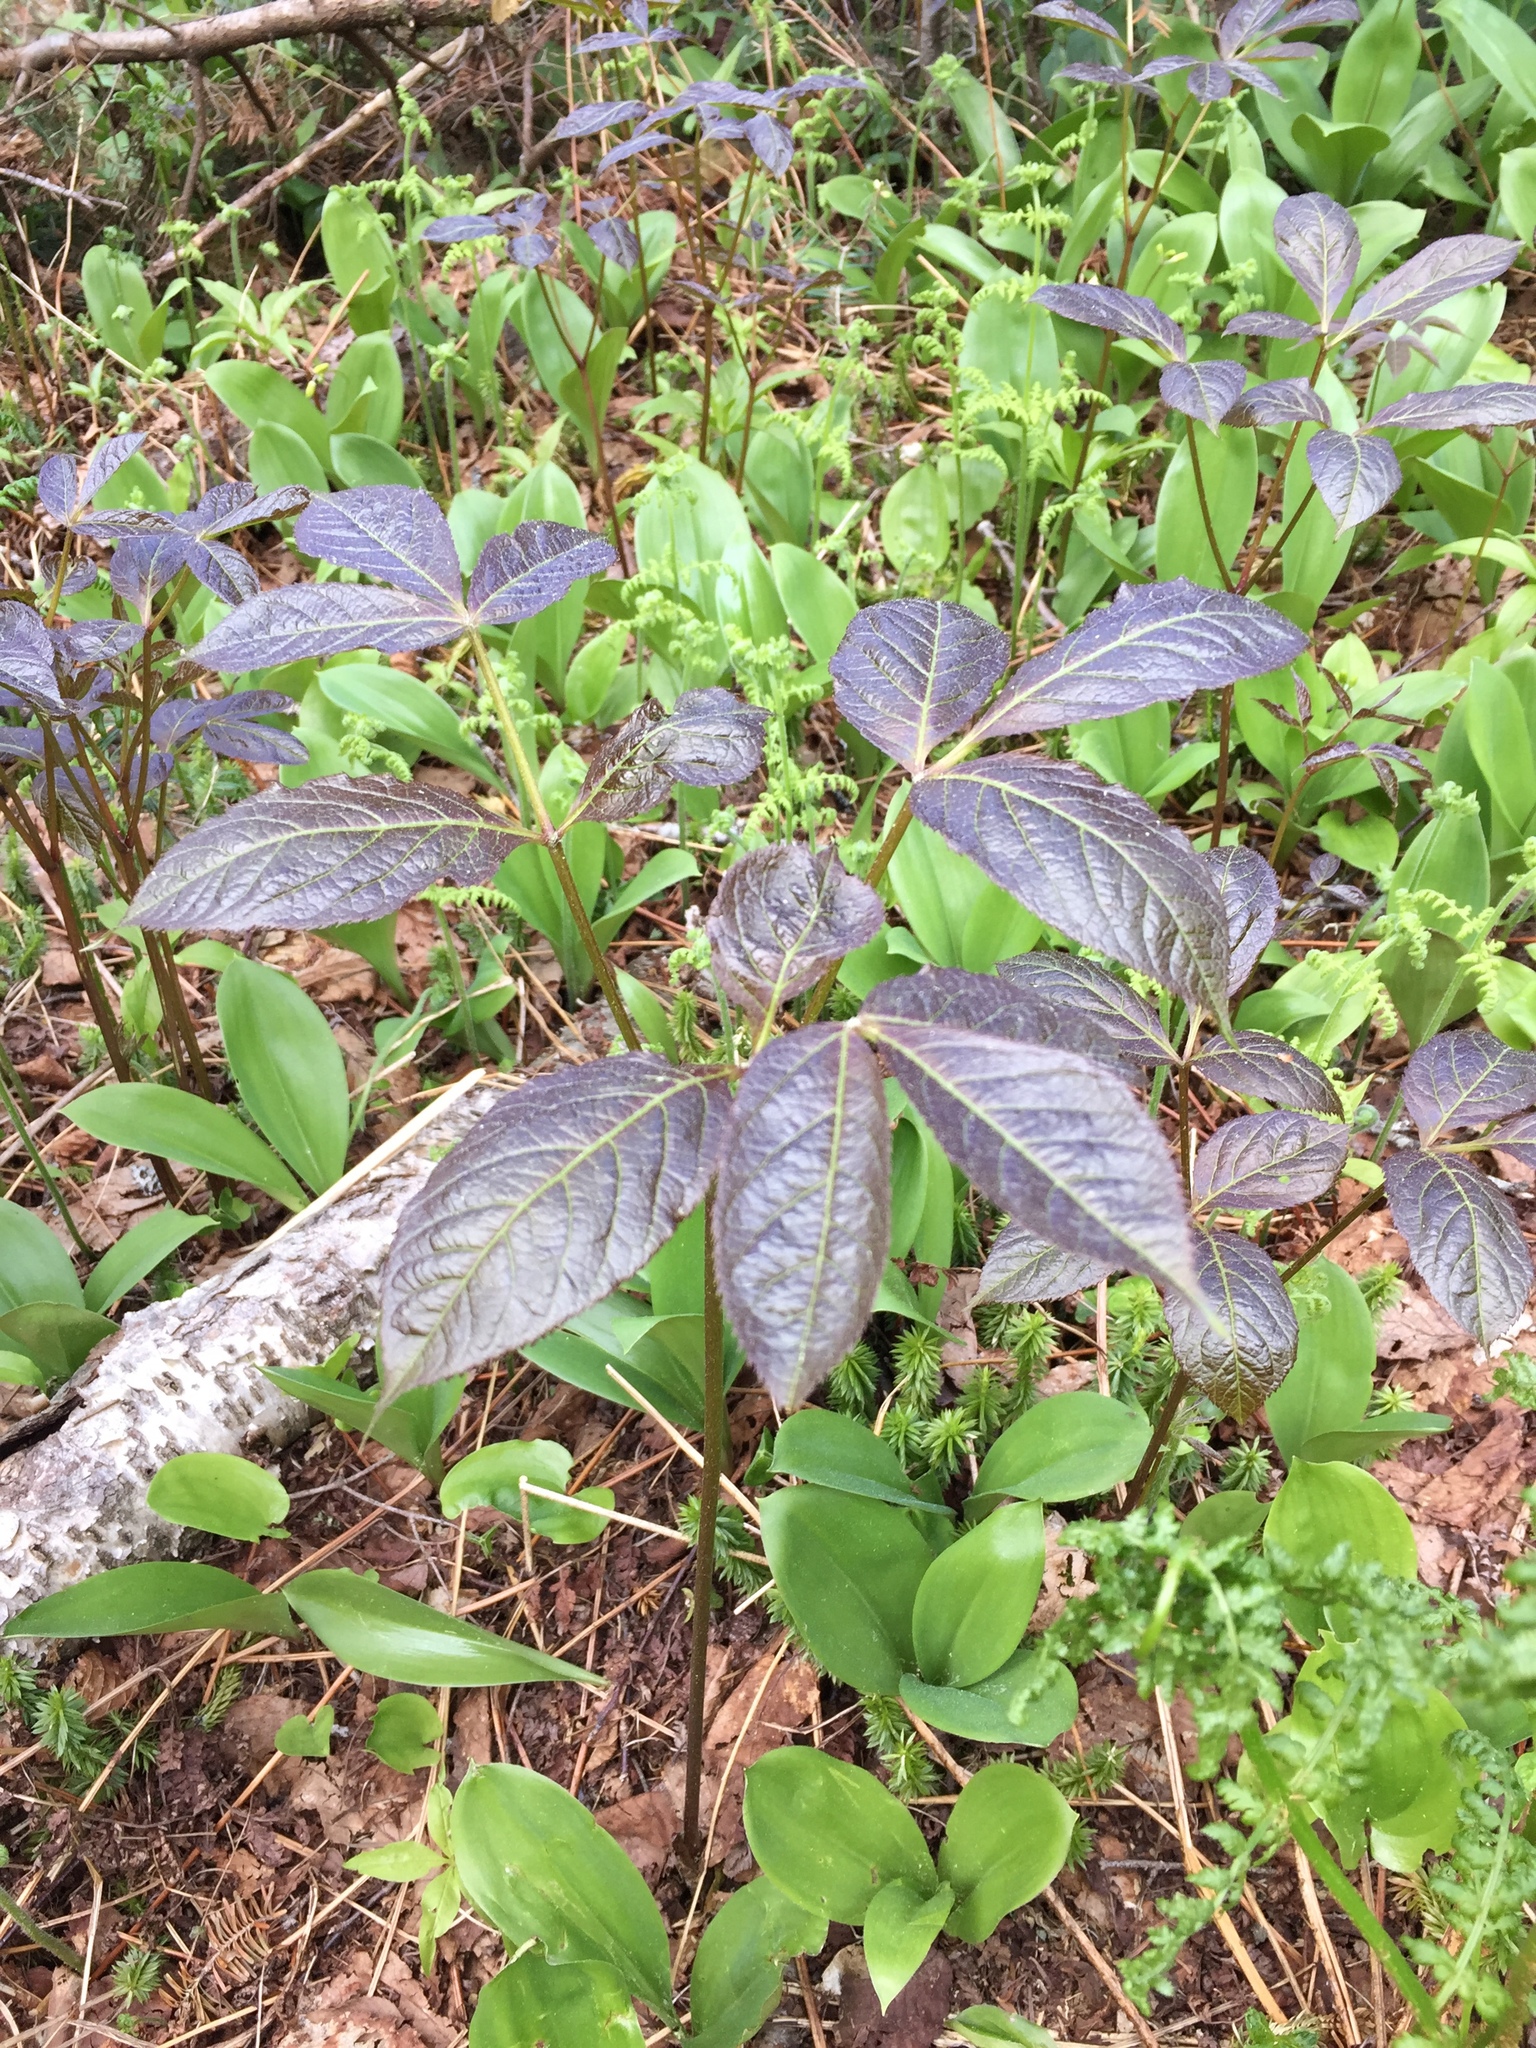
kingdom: Plantae
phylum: Tracheophyta
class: Magnoliopsida
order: Apiales
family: Araliaceae
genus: Aralia
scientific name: Aralia nudicaulis
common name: Wild sarsaparilla
